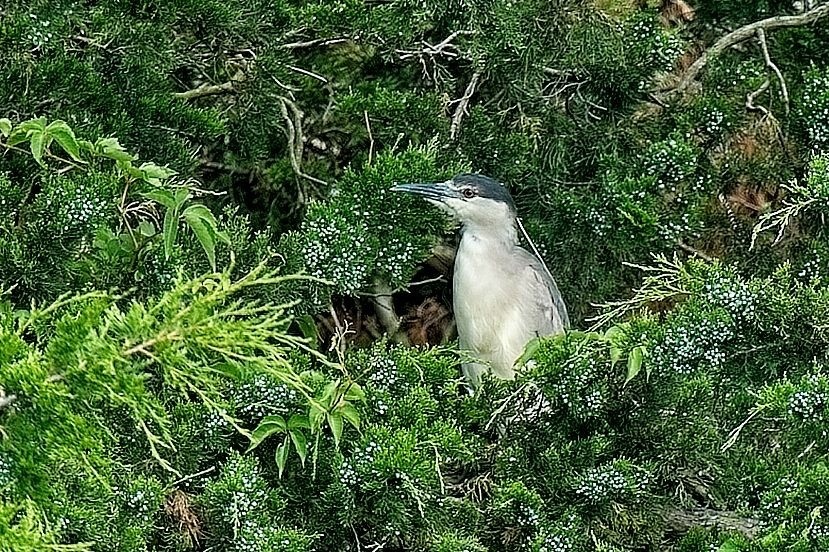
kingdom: Animalia
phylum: Chordata
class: Aves
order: Pelecaniformes
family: Ardeidae
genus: Nycticorax
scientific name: Nycticorax nycticorax
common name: Black-crowned night heron
